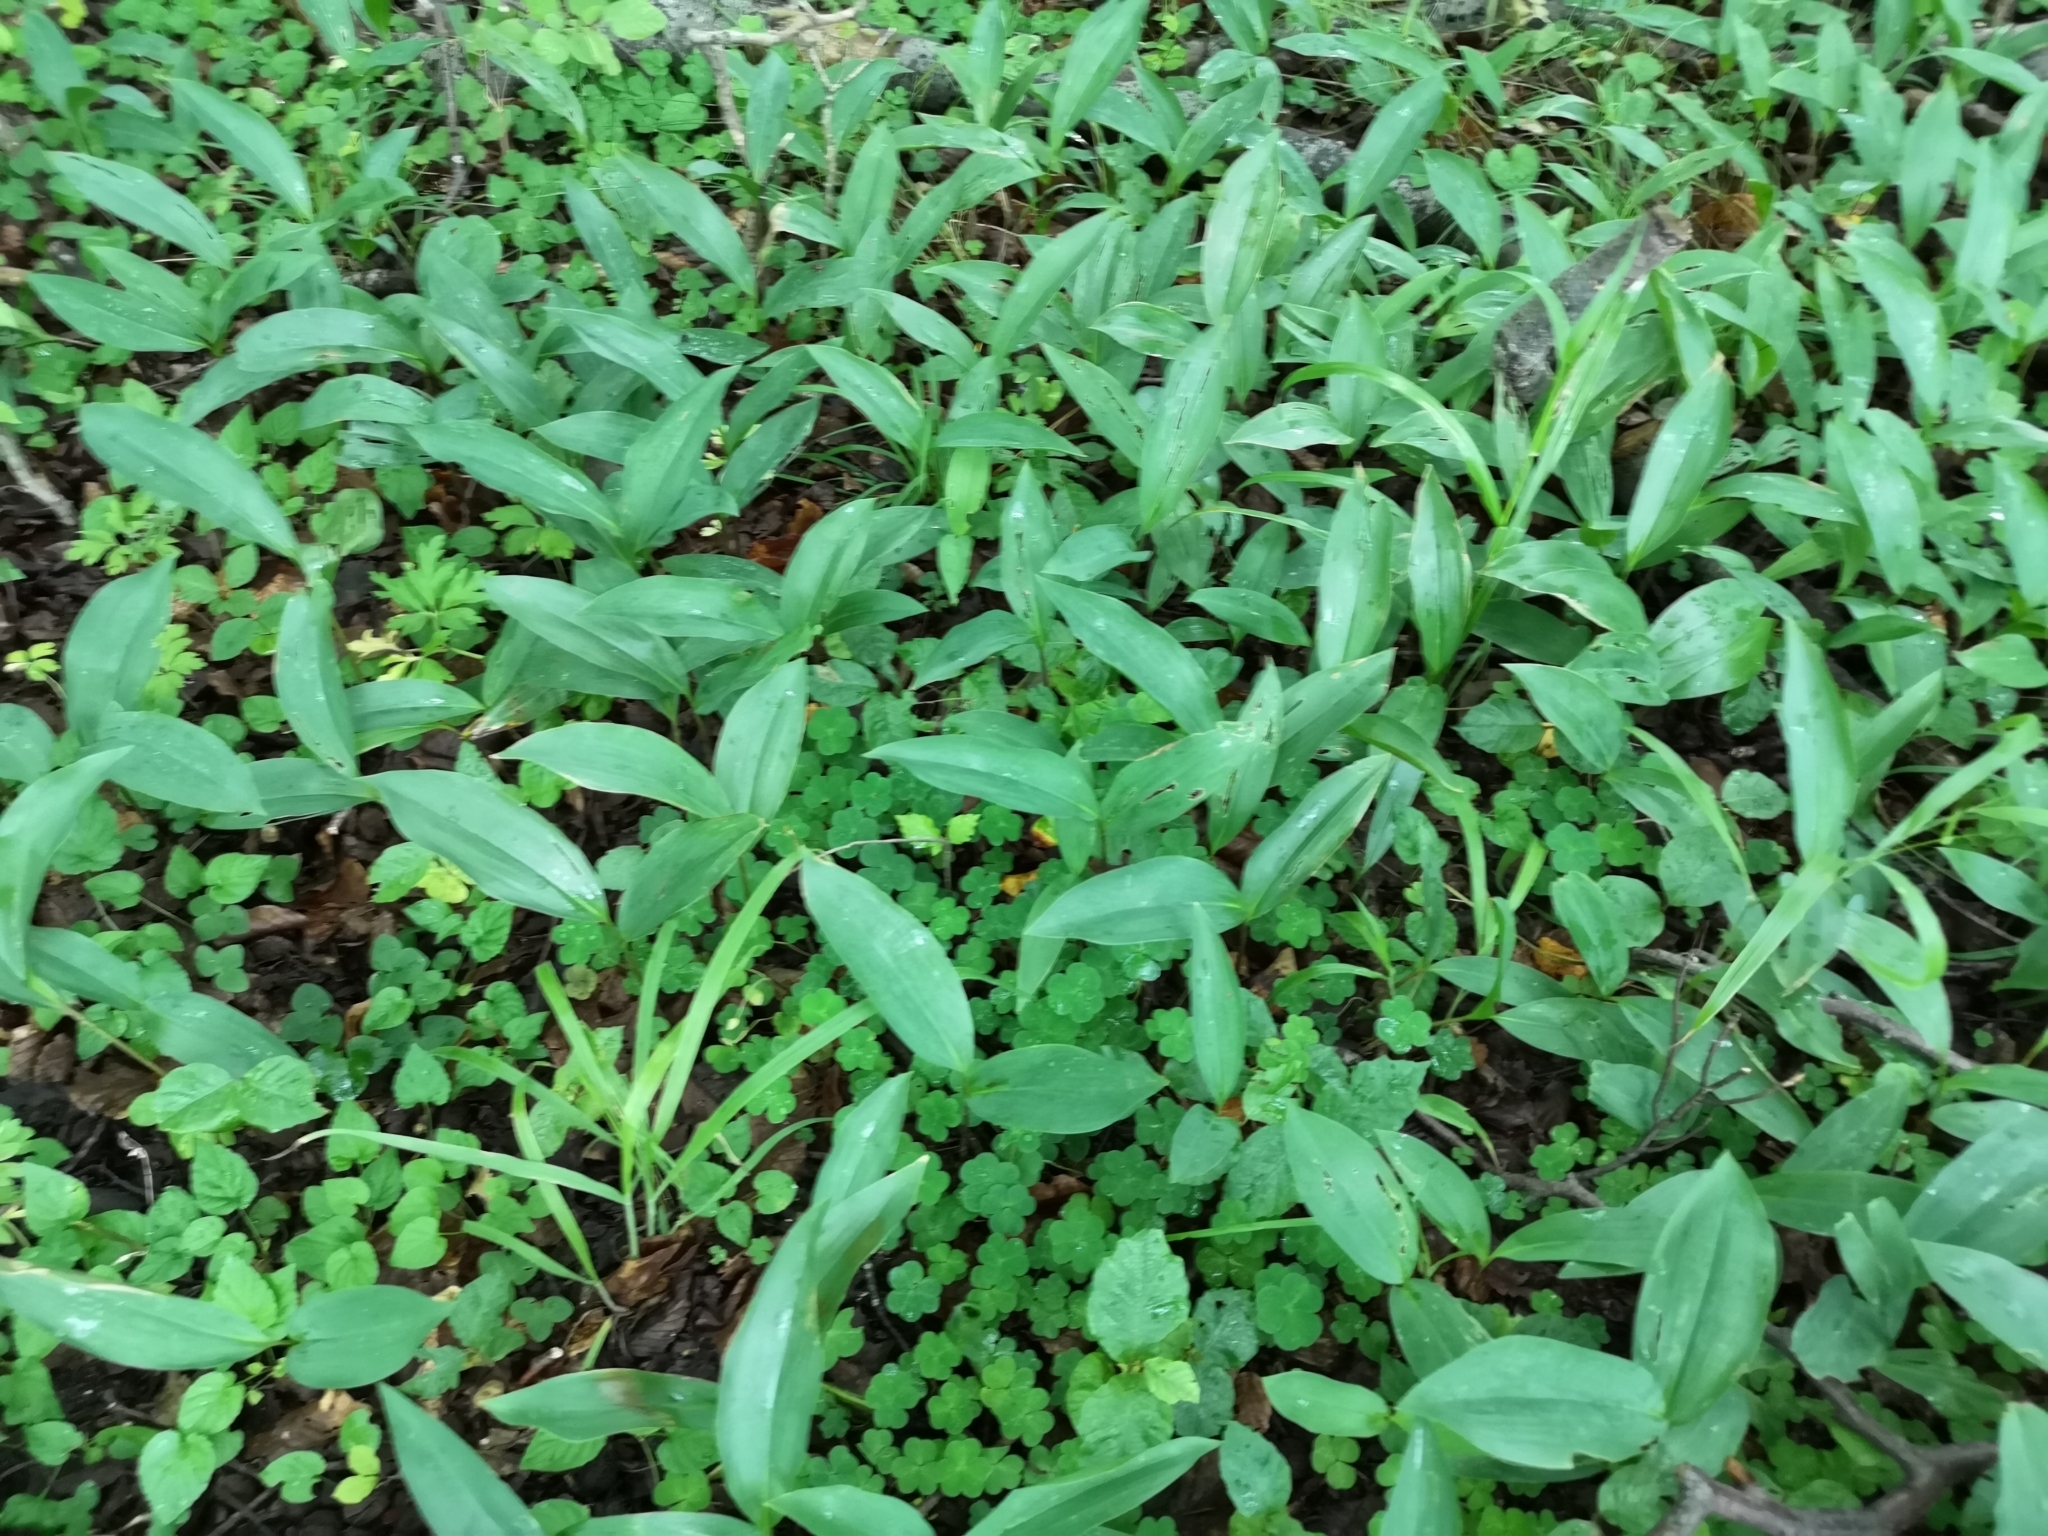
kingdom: Plantae
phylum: Tracheophyta
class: Liliopsida
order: Asparagales
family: Asparagaceae
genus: Convallaria
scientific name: Convallaria majalis
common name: Lily-of-the-valley
